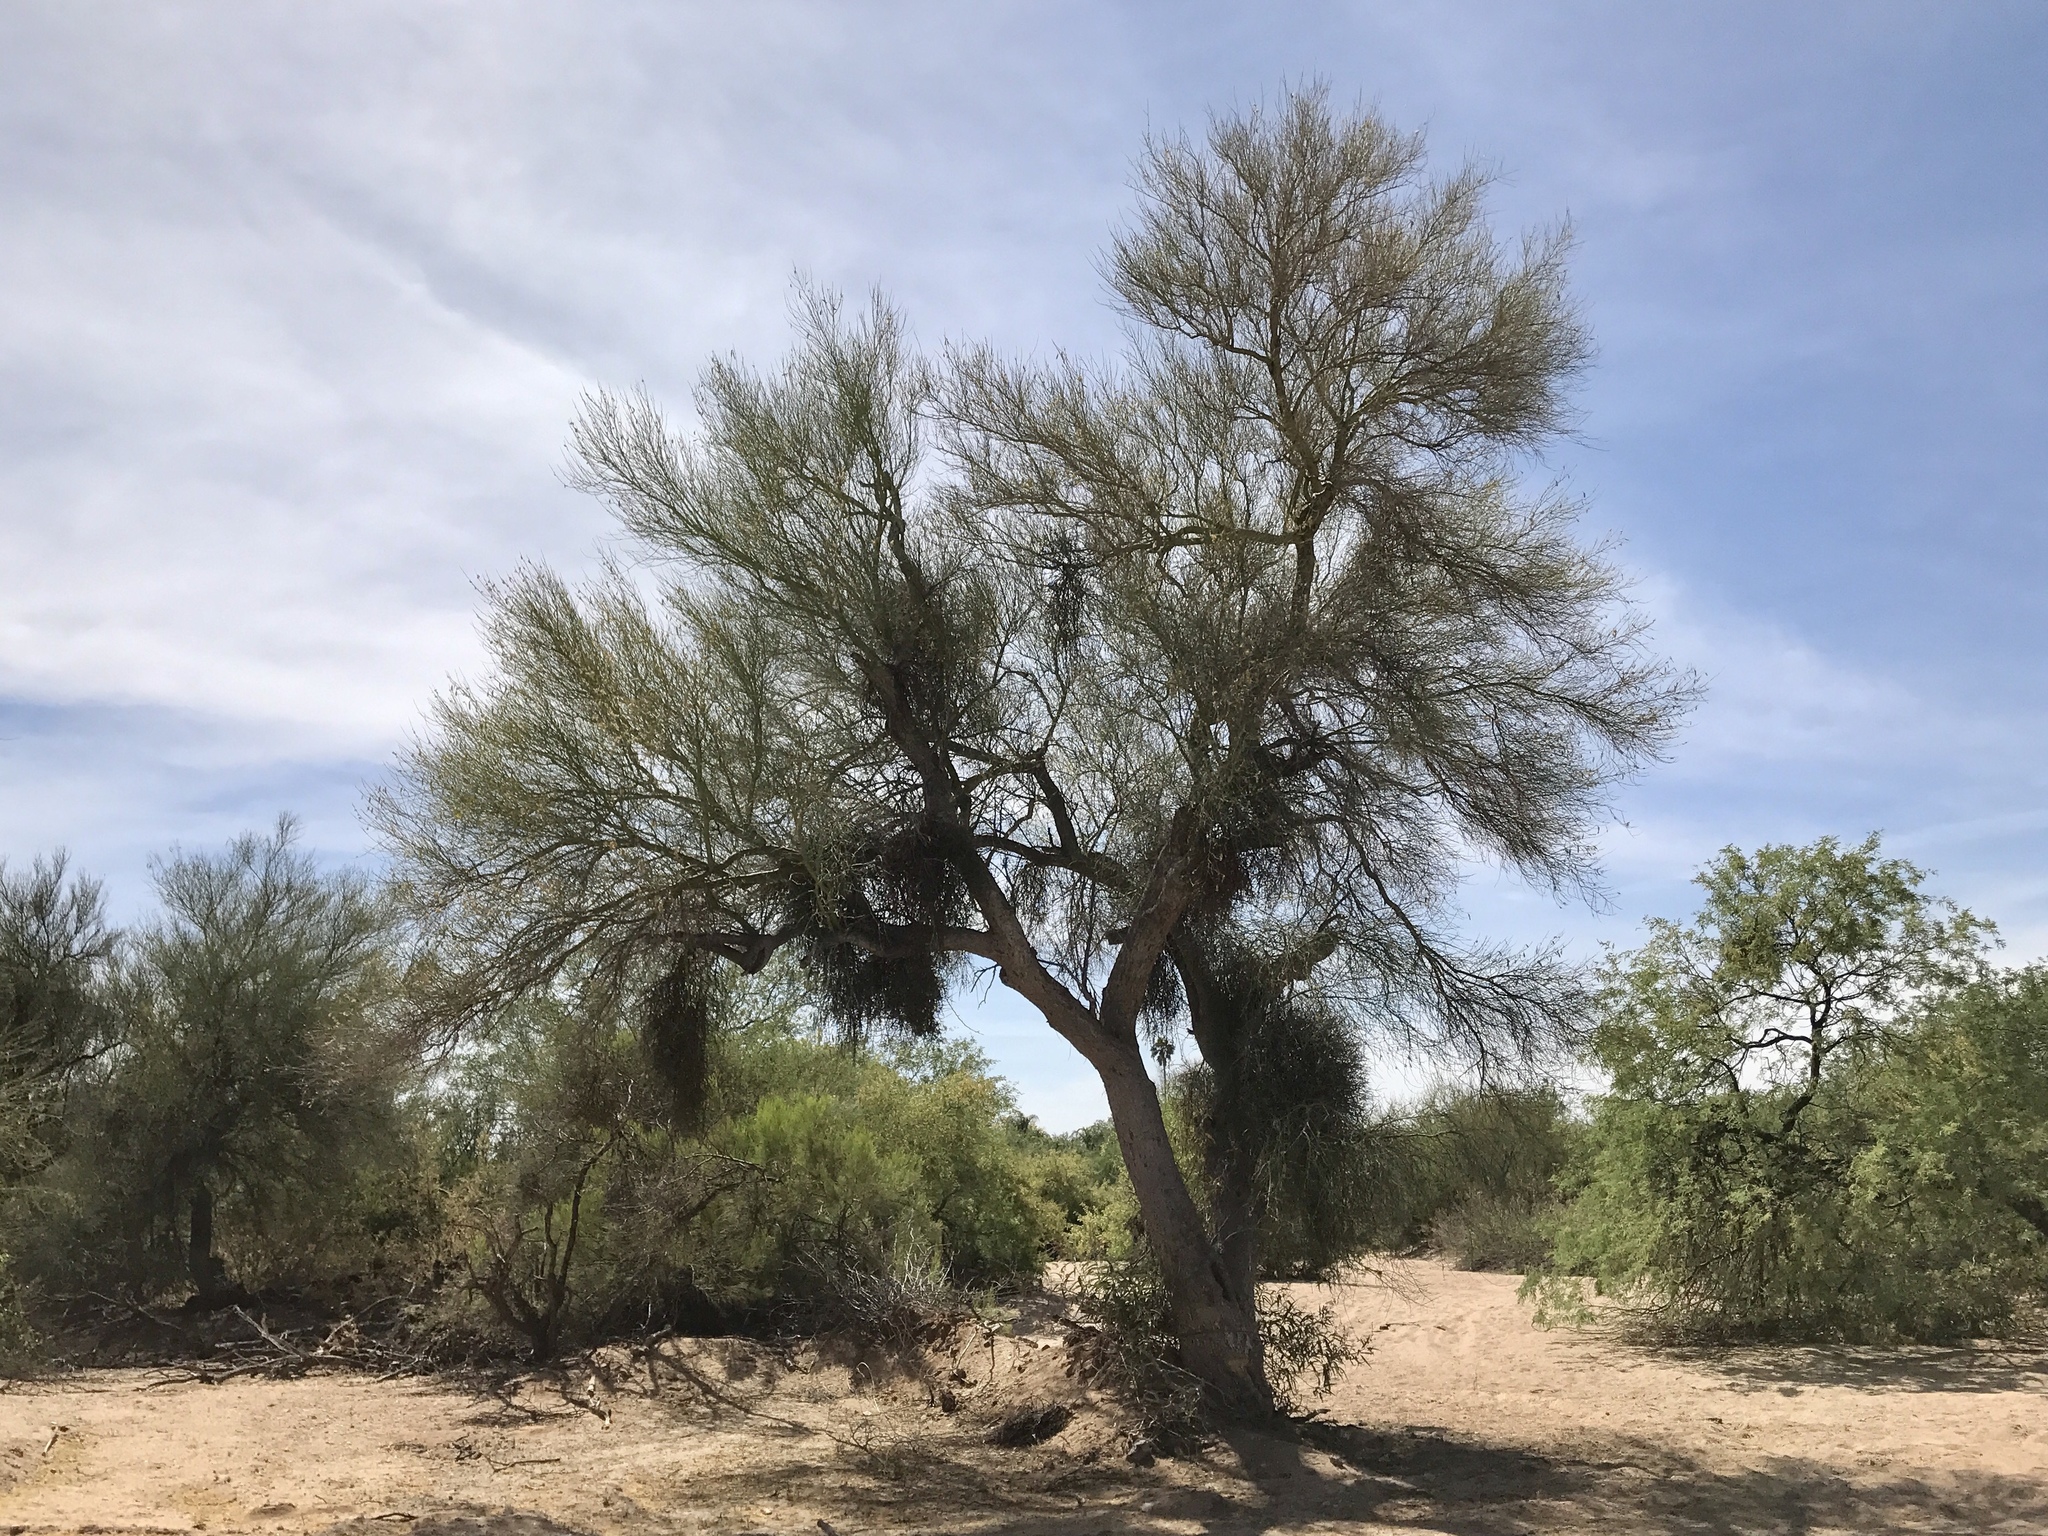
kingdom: Plantae
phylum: Tracheophyta
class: Magnoliopsida
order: Fabales
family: Fabaceae
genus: Parkinsonia
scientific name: Parkinsonia florida
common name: Blue paloverde
